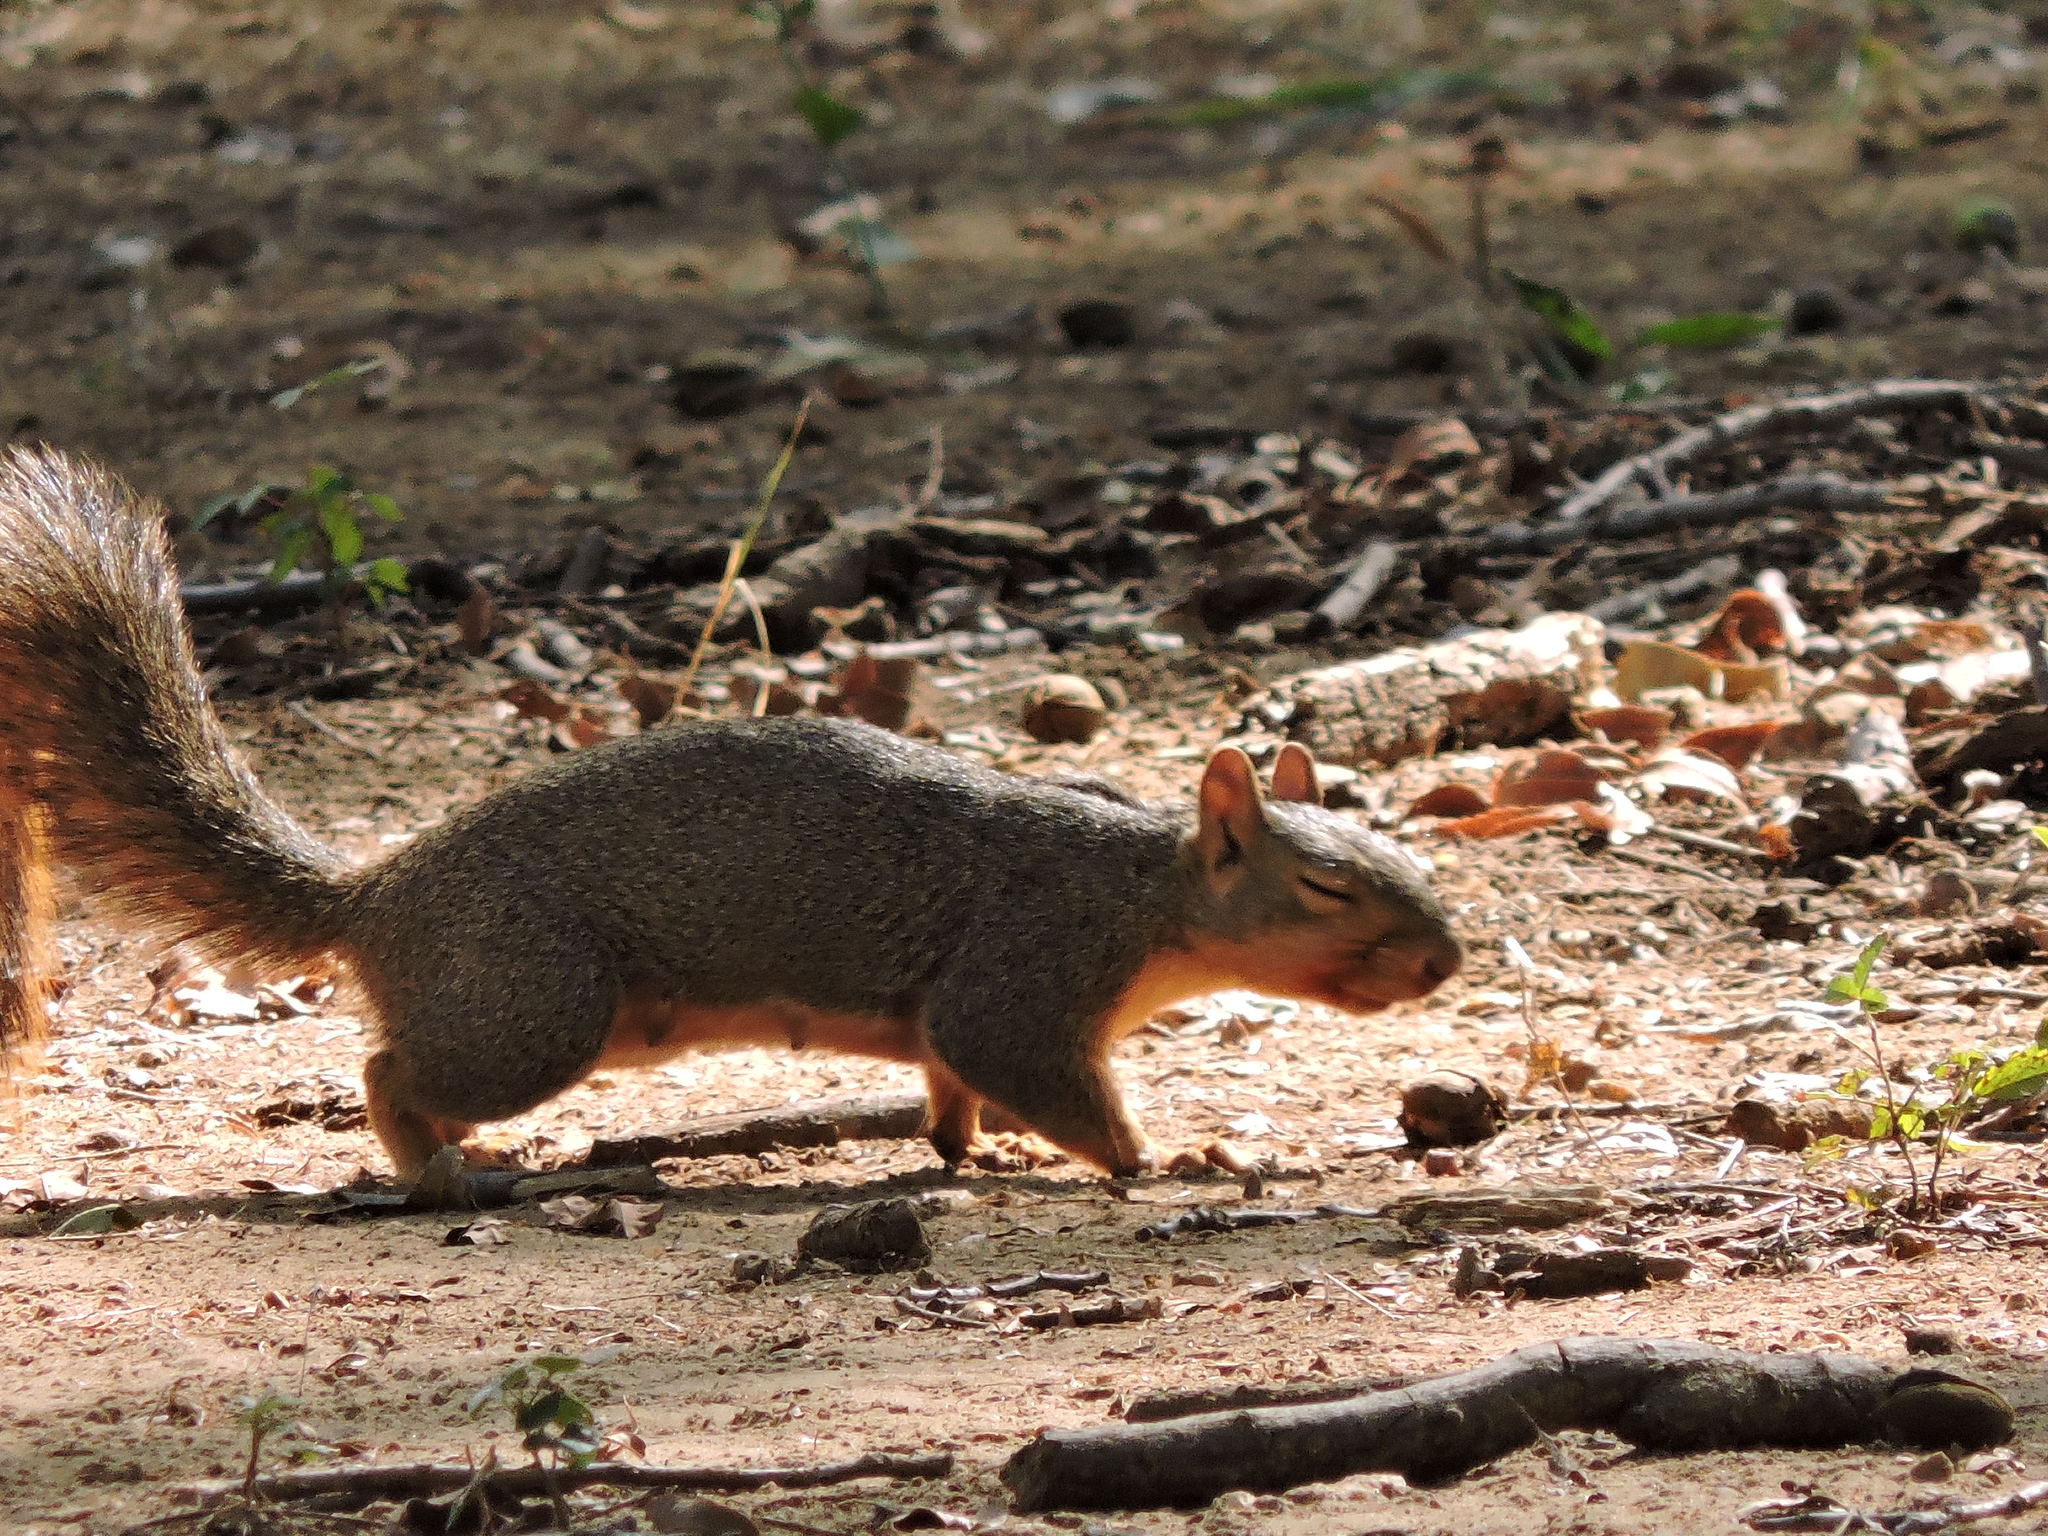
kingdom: Animalia
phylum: Chordata
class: Mammalia
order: Rodentia
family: Sciuridae
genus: Sciurus
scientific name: Sciurus niger
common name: Fox squirrel
